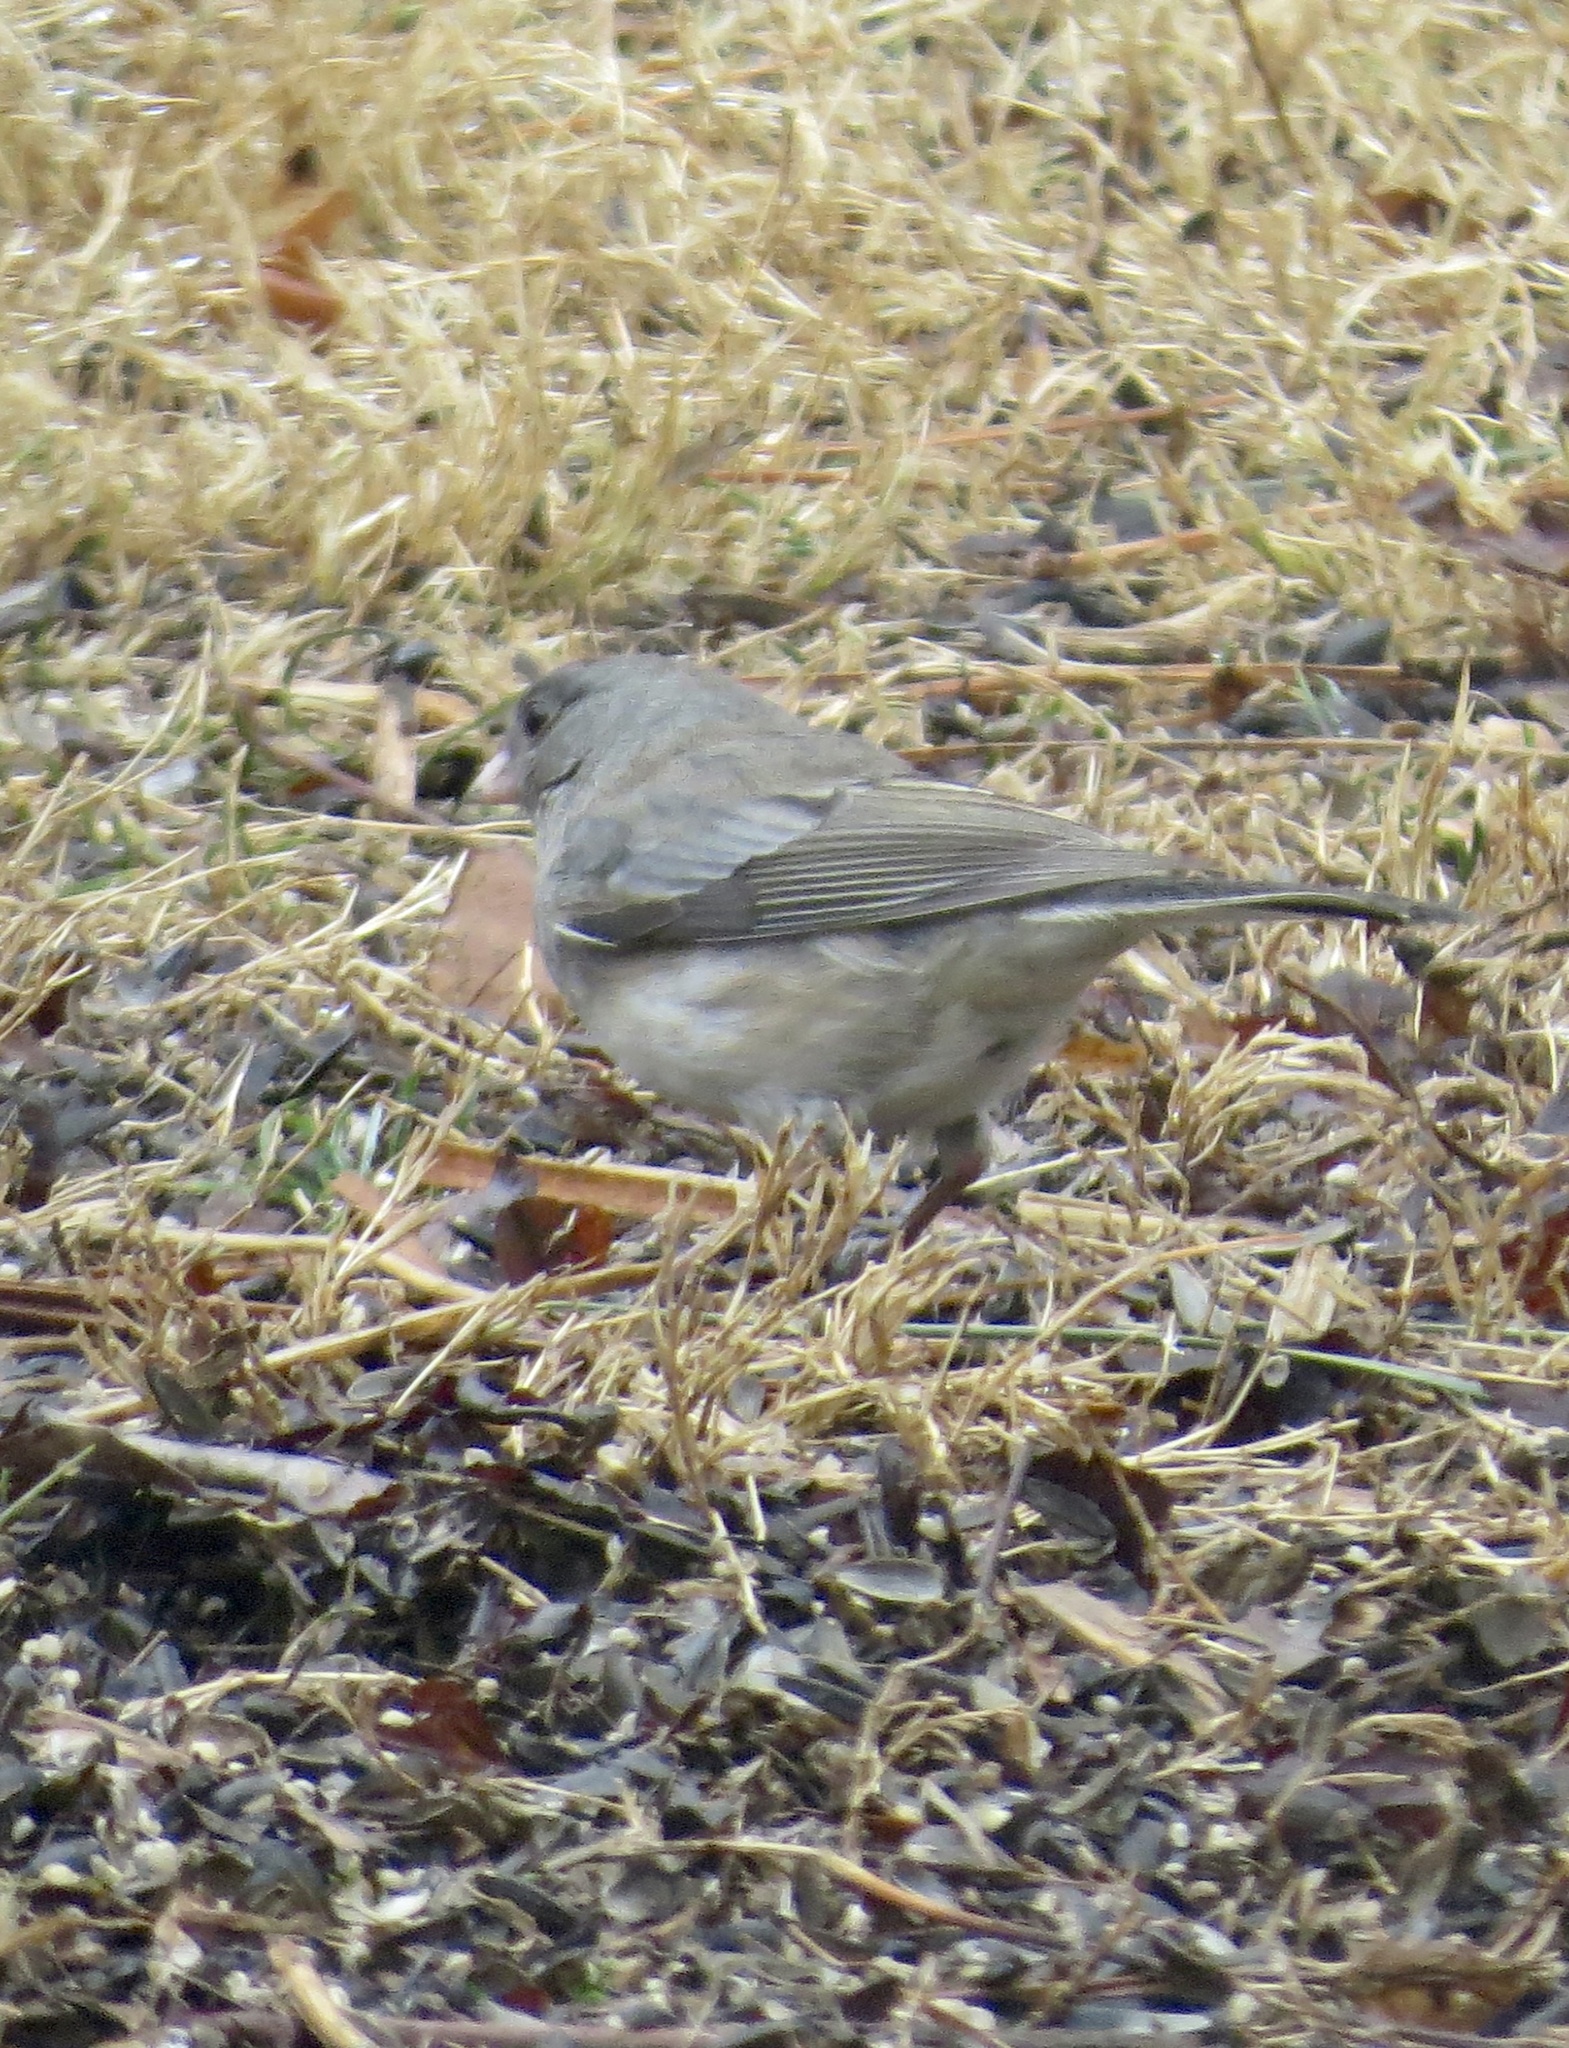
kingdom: Animalia
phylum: Chordata
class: Aves
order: Passeriformes
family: Passerellidae
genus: Junco
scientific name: Junco hyemalis
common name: Dark-eyed junco
